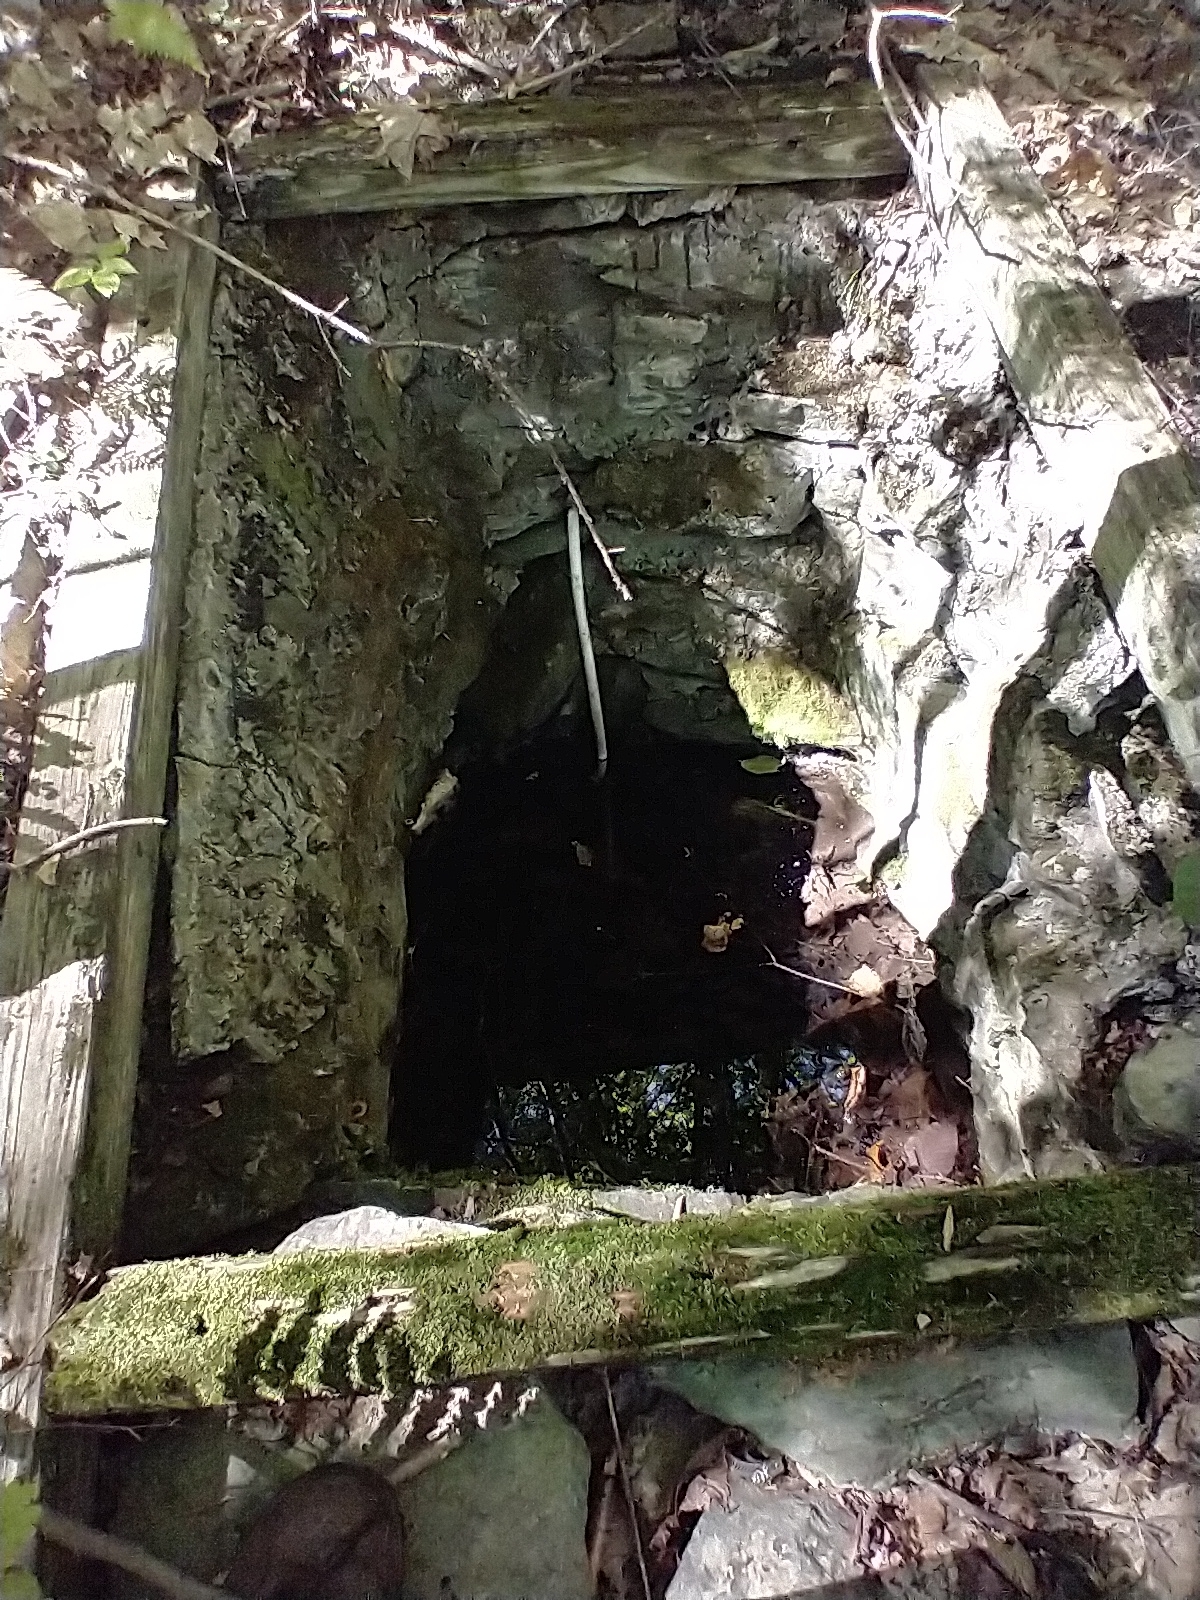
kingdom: Animalia
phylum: Chordata
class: Amphibia
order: Anura
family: Ranidae
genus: Lithobates
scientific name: Lithobates clamitans
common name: Green frog
